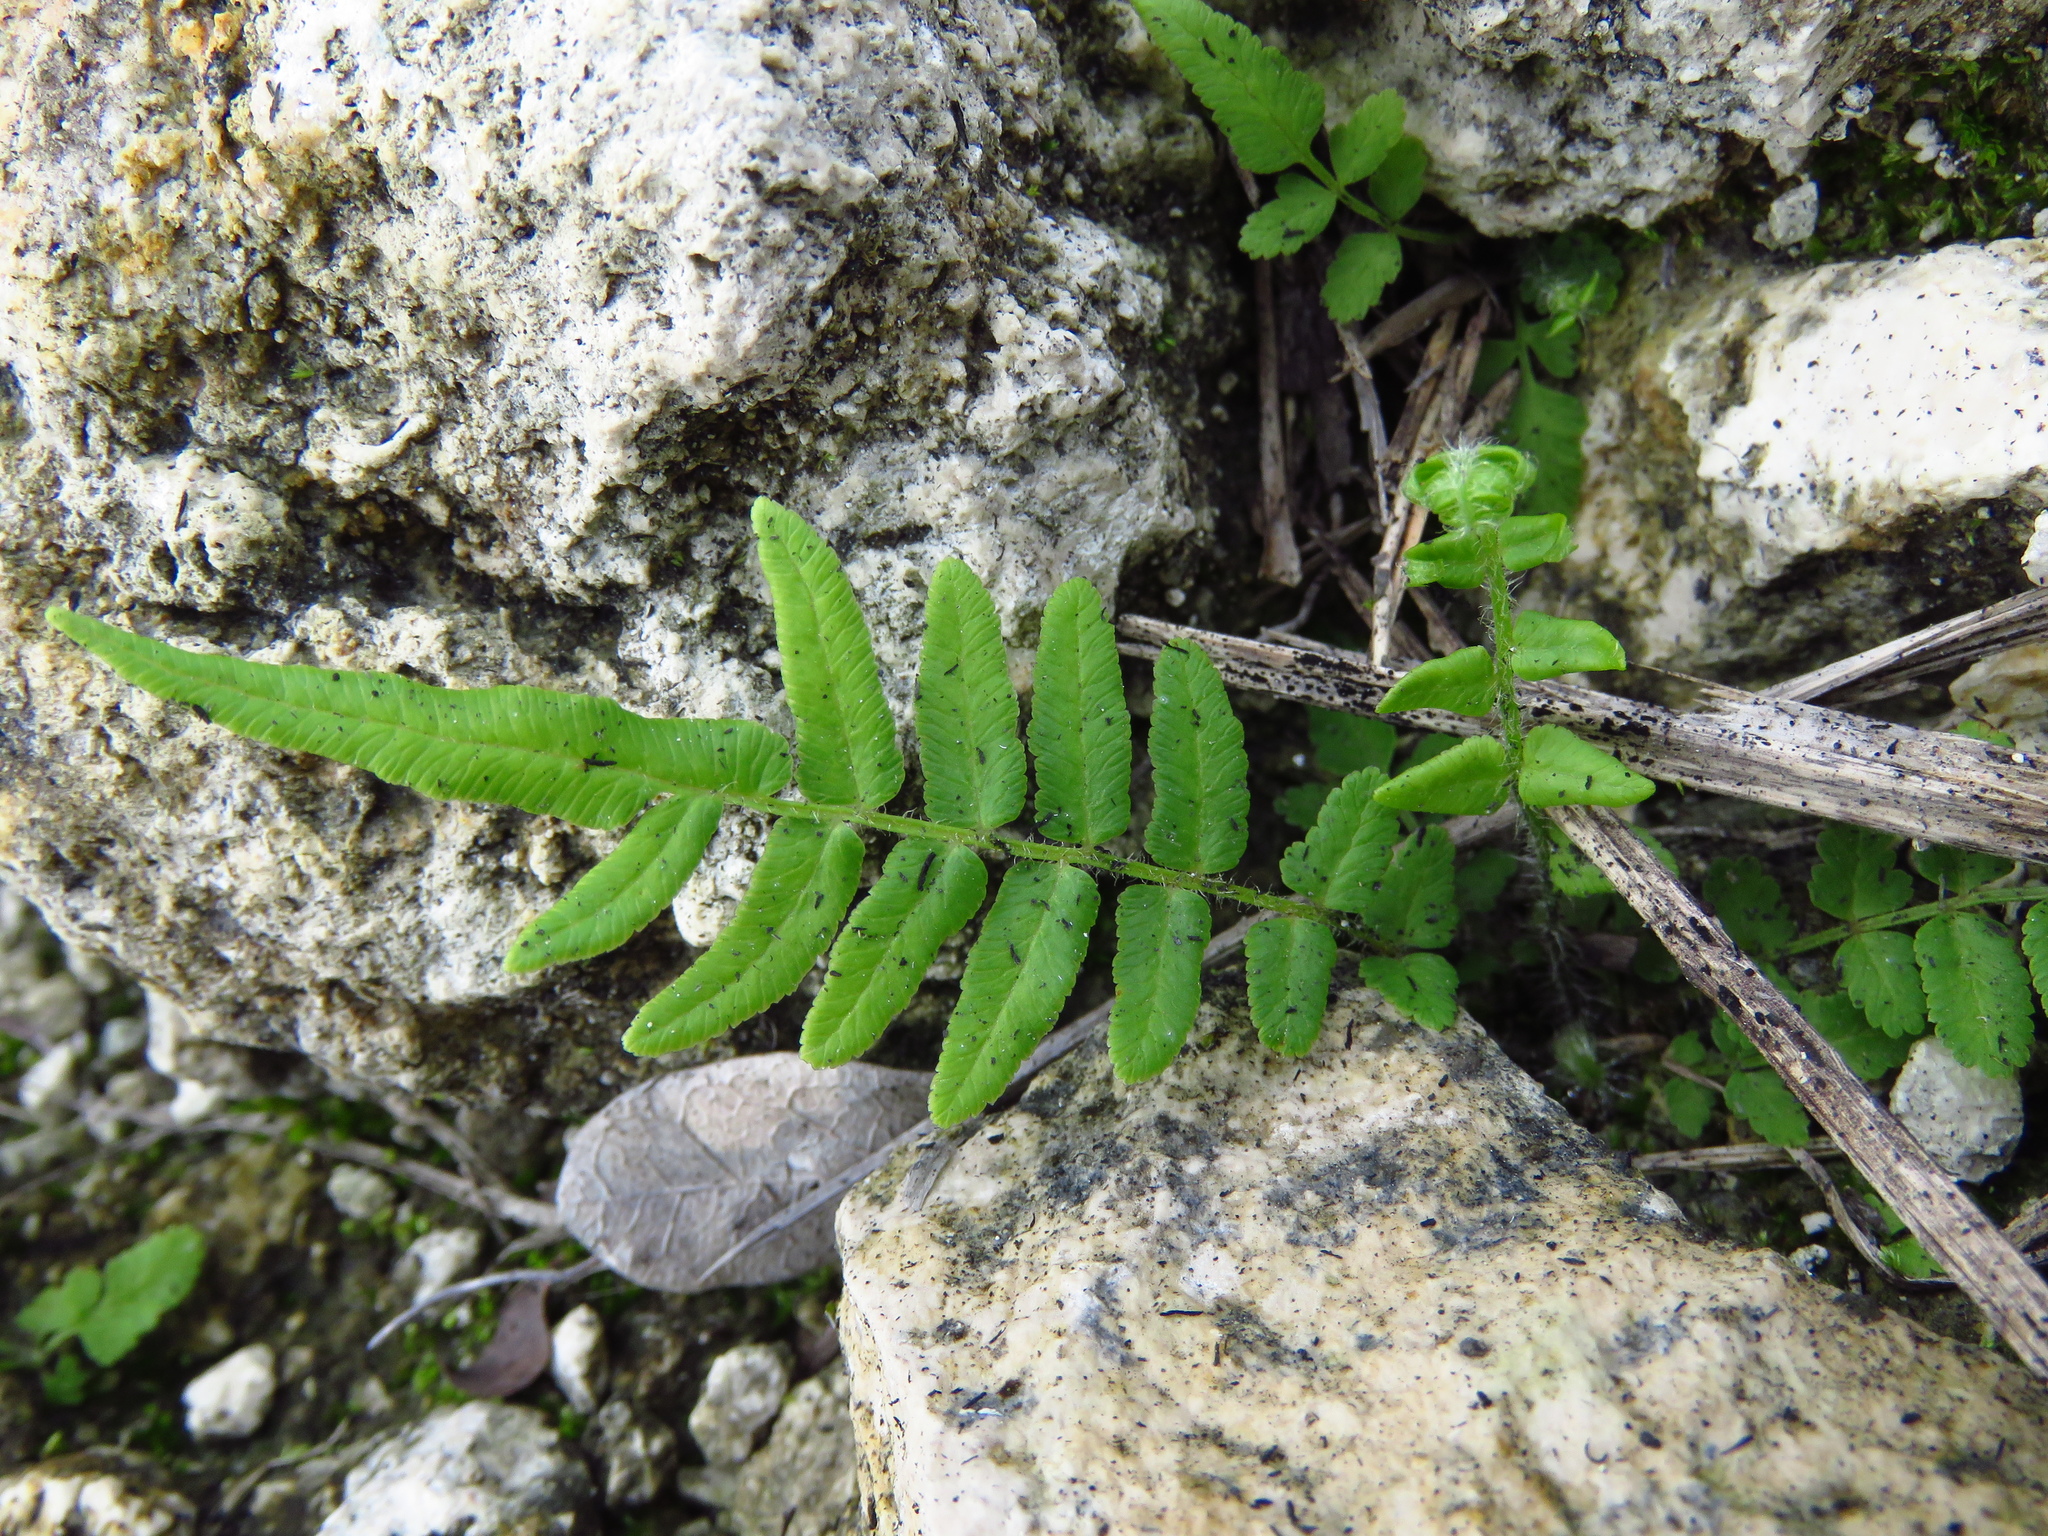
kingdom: Plantae
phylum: Tracheophyta
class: Polypodiopsida
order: Polypodiales
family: Pteridaceae
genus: Pteris
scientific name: Pteris vittata
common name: Ladder brake
